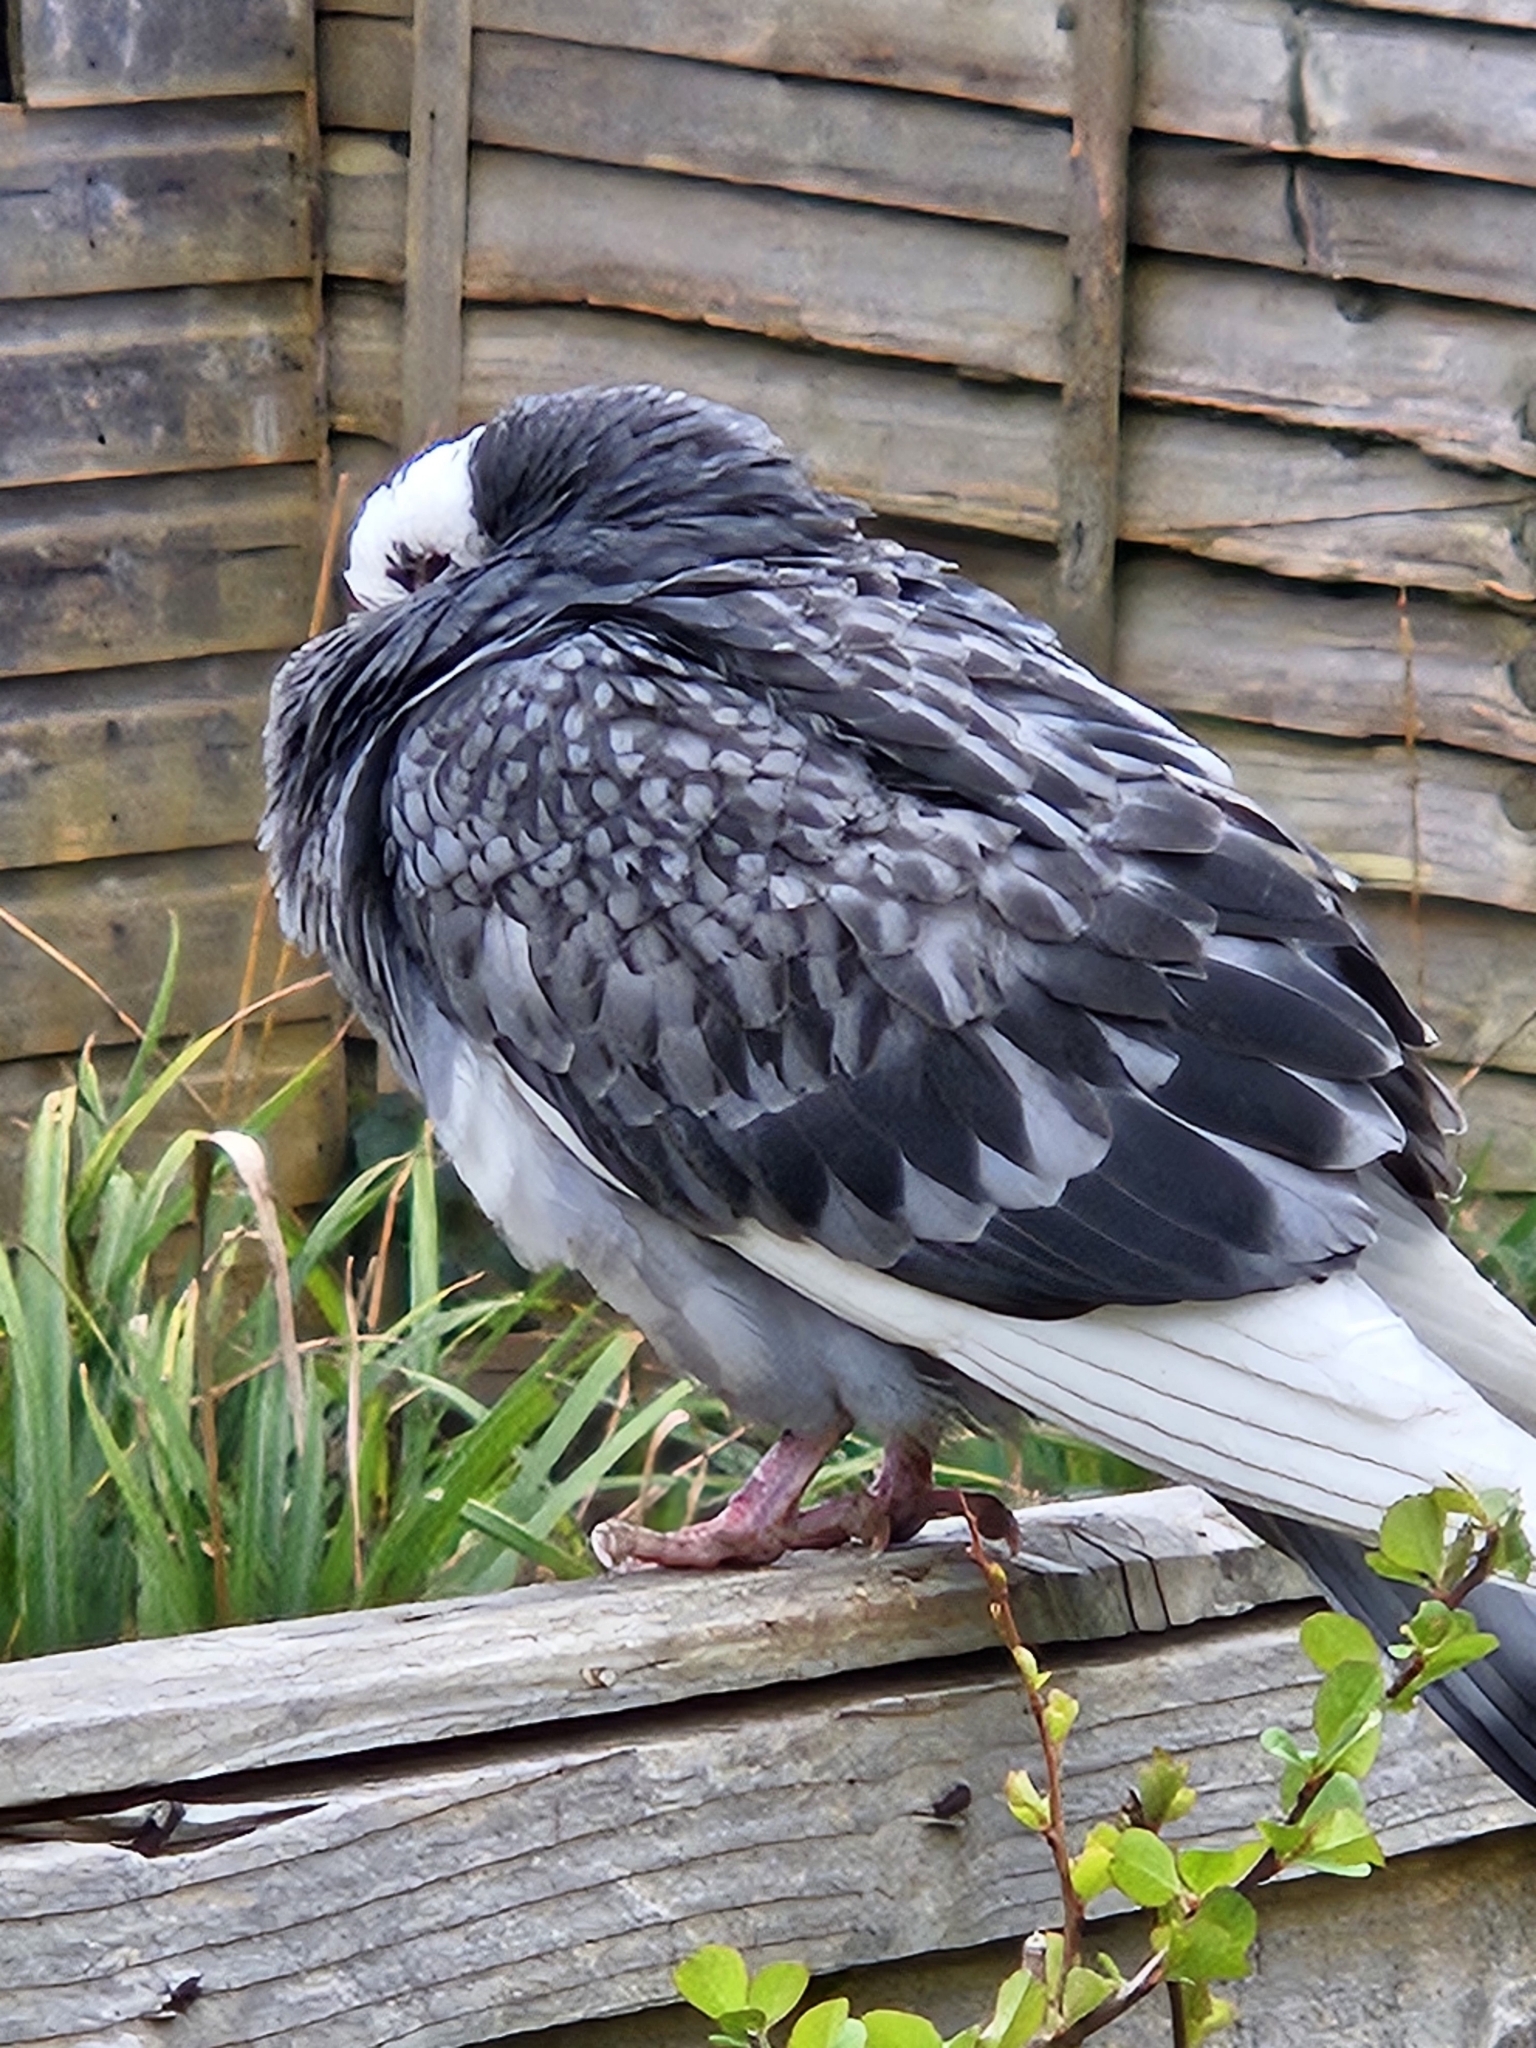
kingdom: Animalia
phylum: Chordata
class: Aves
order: Columbiformes
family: Columbidae
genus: Columba
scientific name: Columba livia
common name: Rock pigeon
